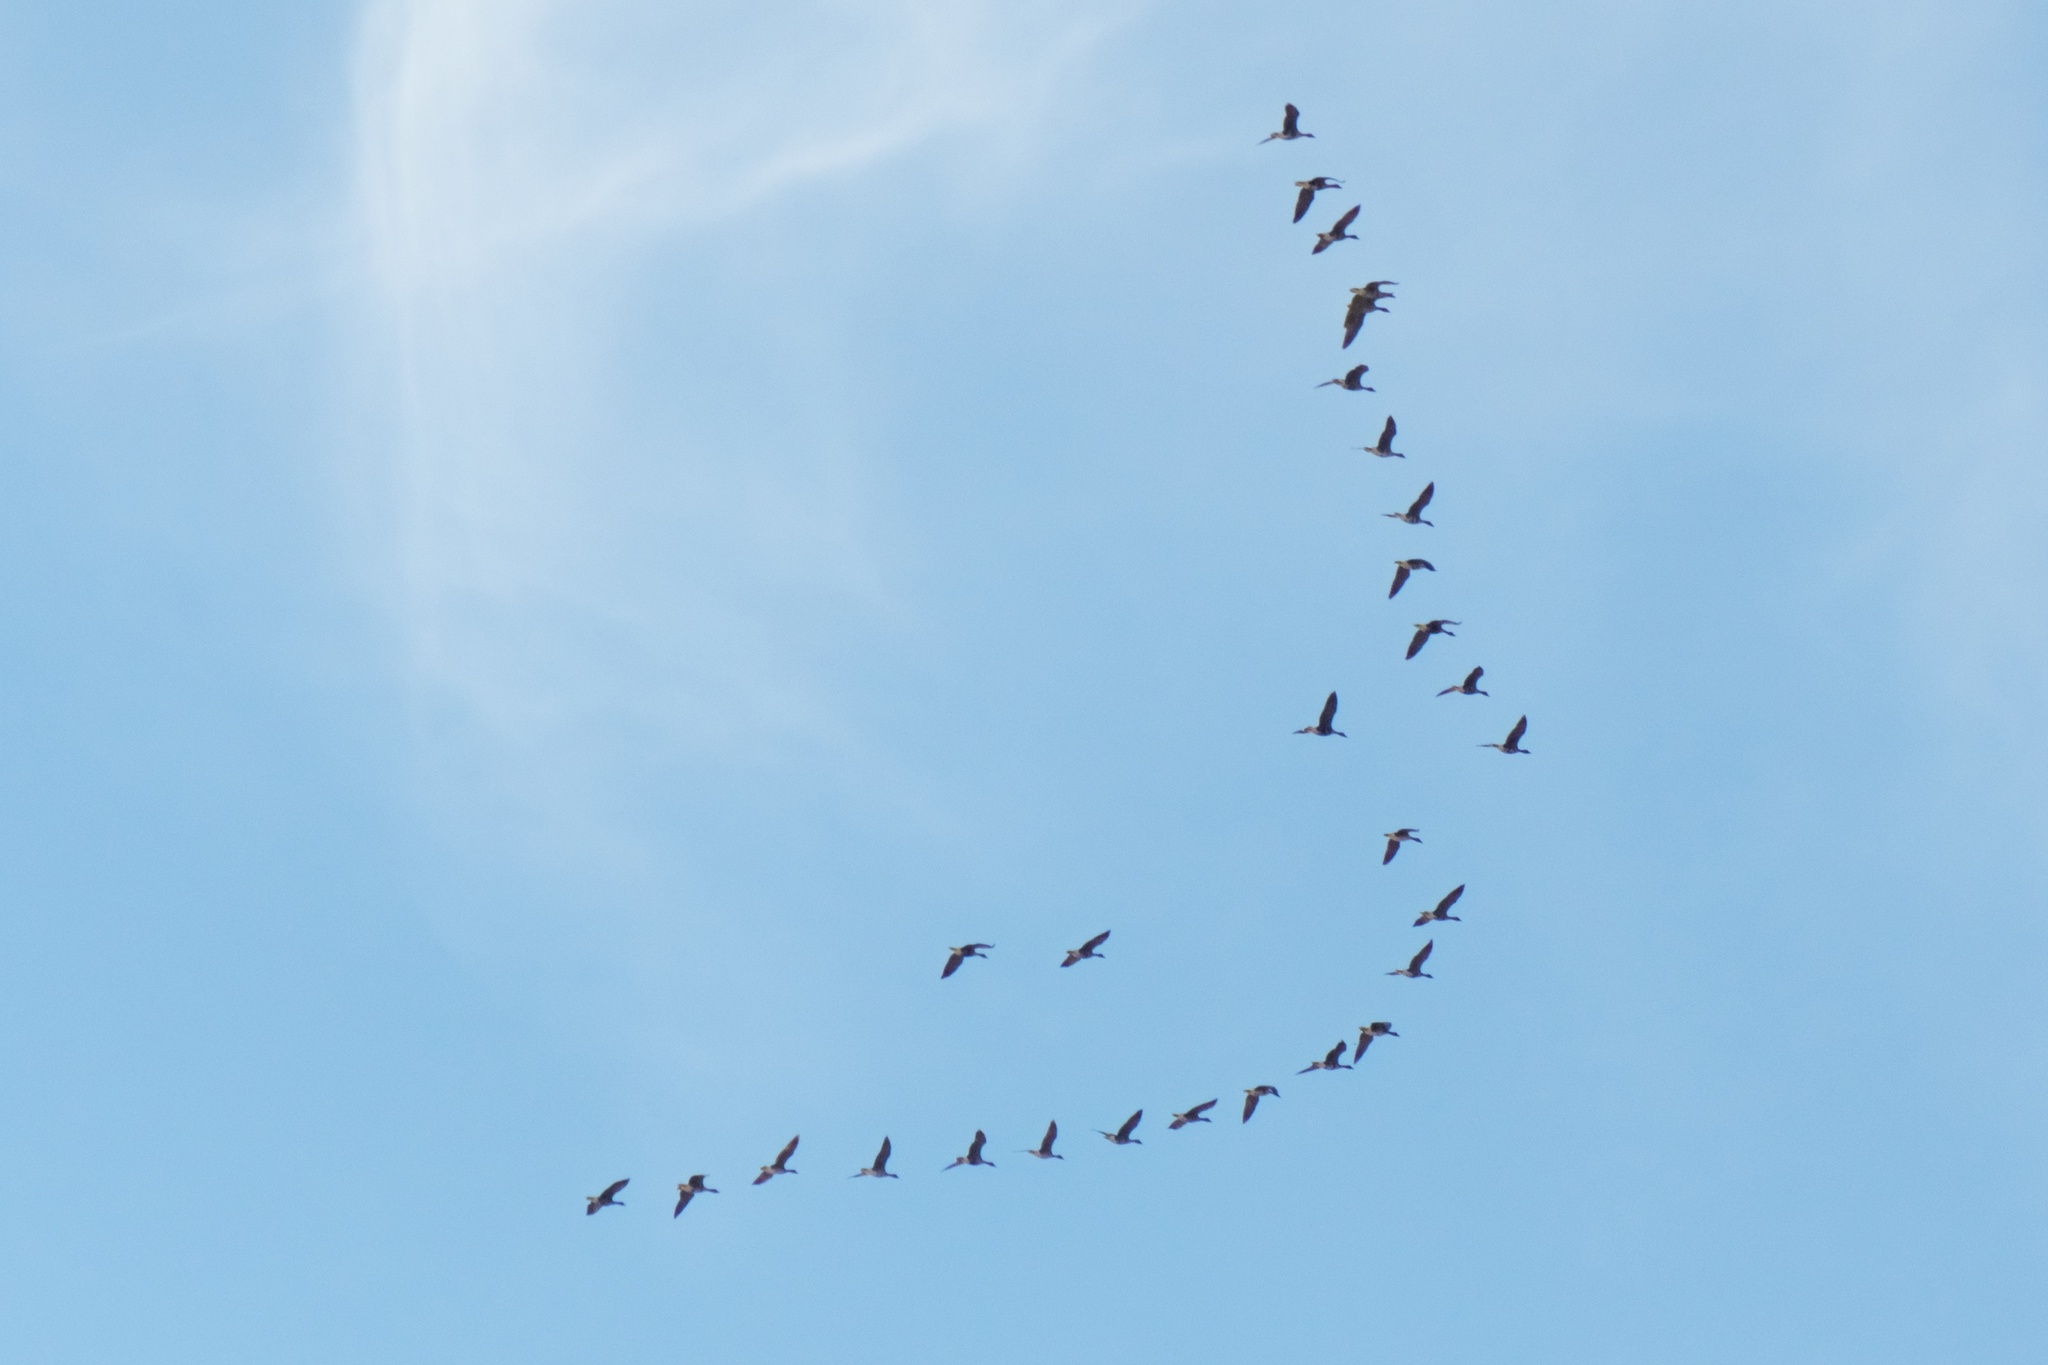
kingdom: Animalia
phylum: Chordata
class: Aves
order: Anseriformes
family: Anatidae
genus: Anser
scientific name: Anser albifrons
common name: Greater white-fronted goose
